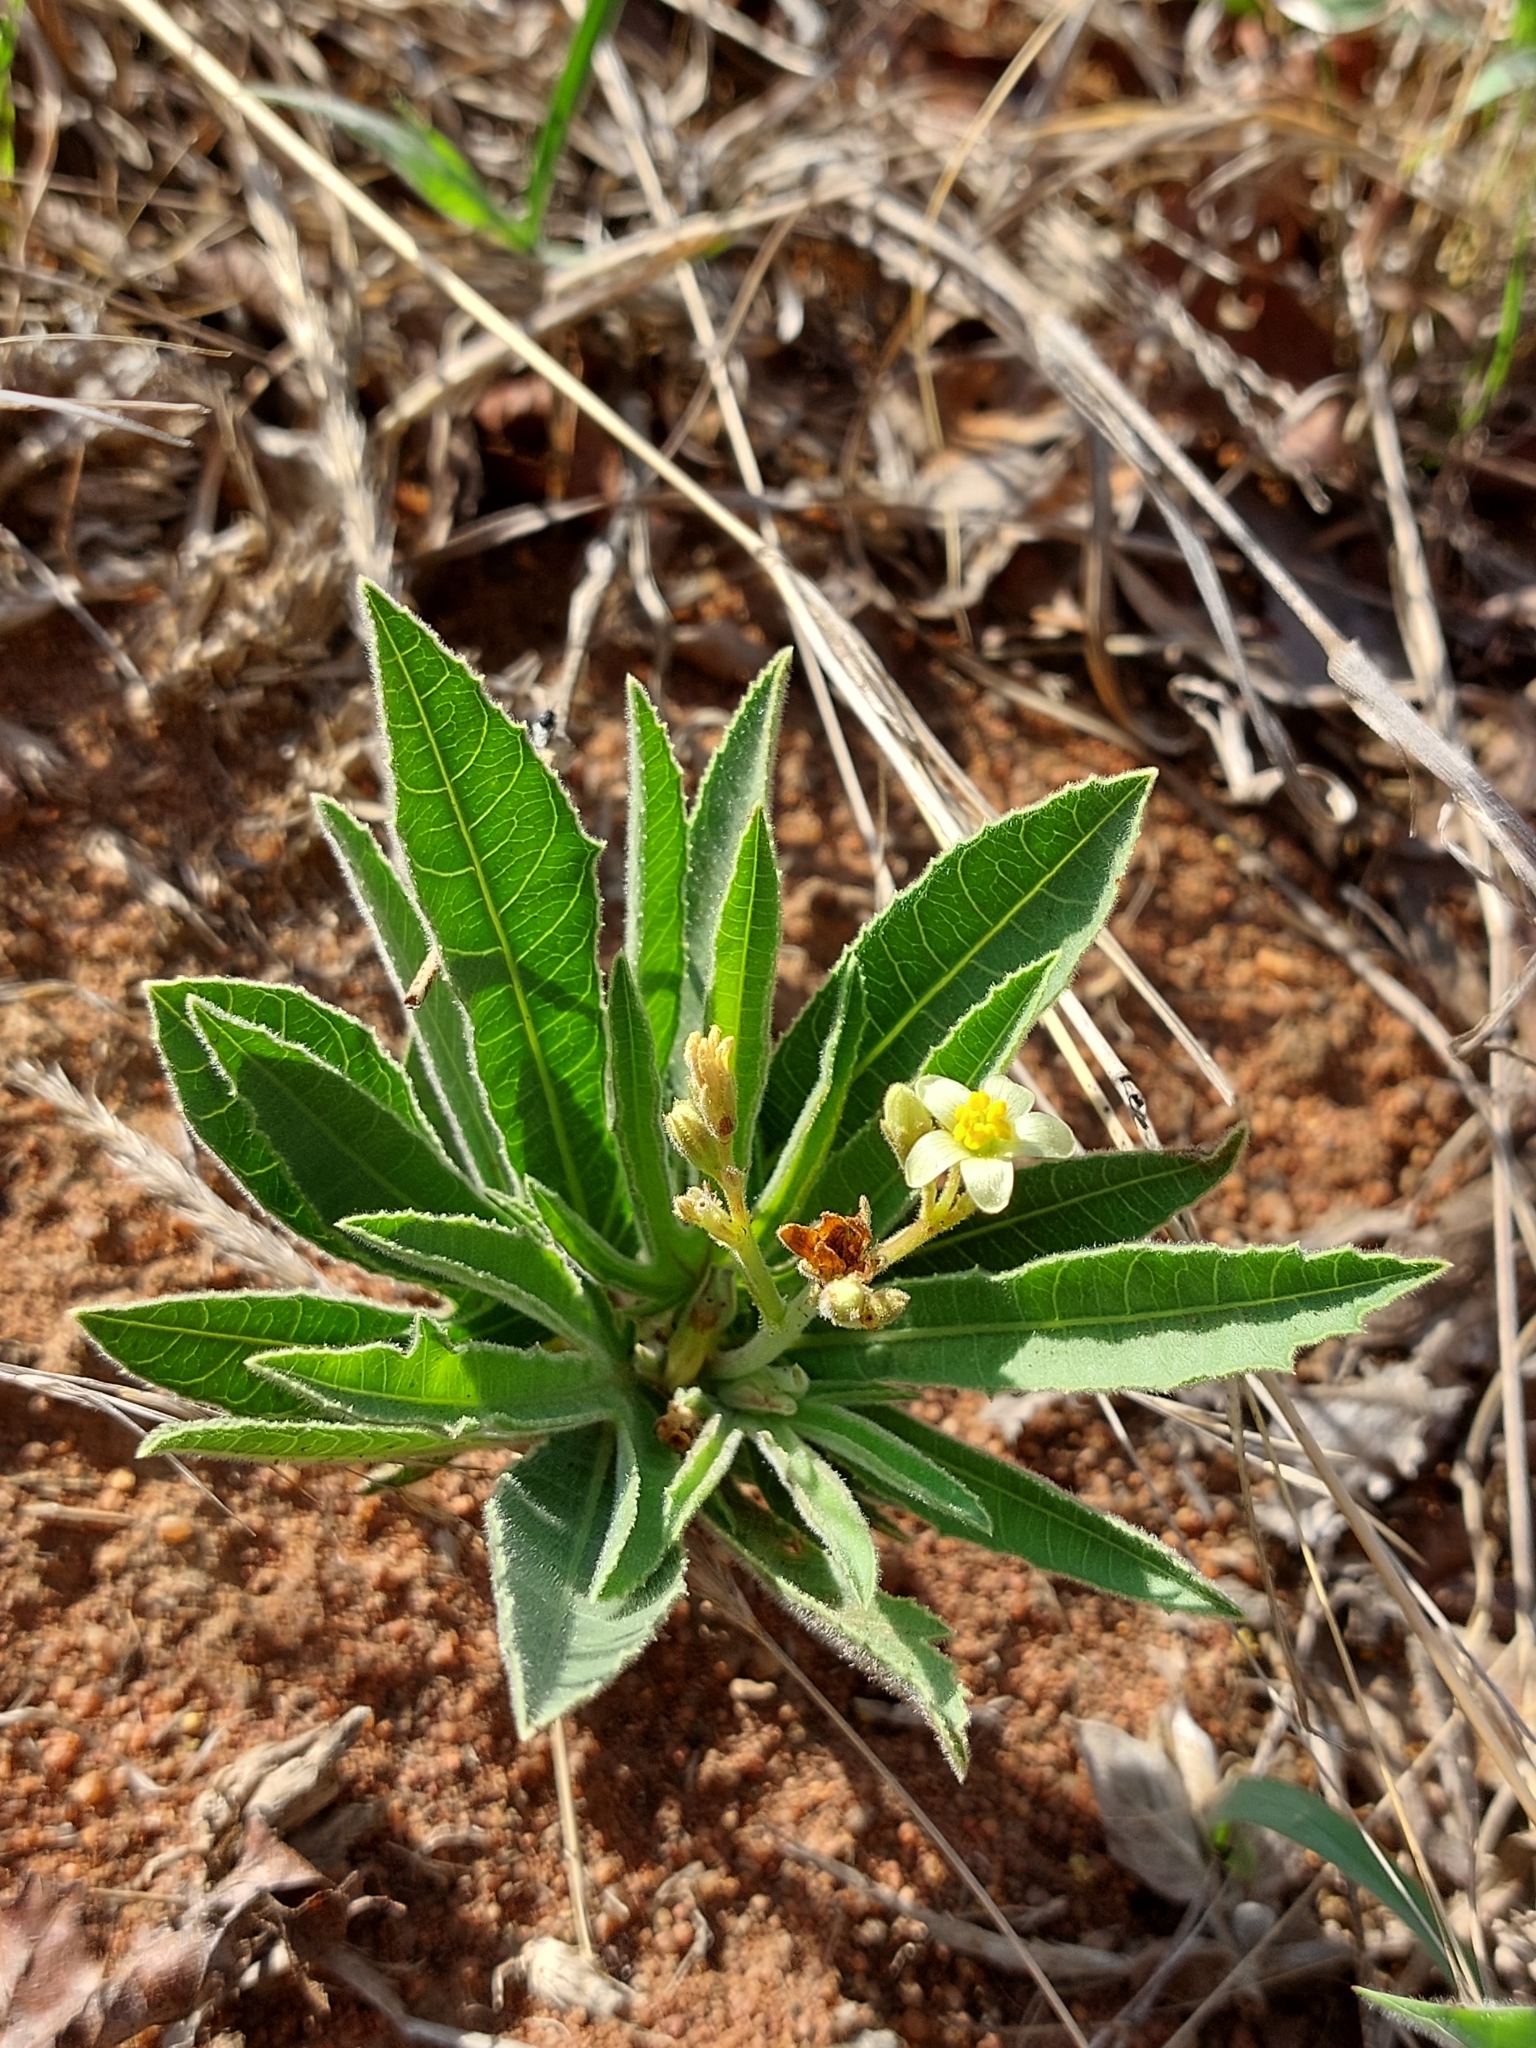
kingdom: Plantae
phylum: Tracheophyta
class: Magnoliopsida
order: Malpighiales
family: Euphorbiaceae
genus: Jatropha
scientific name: Jatropha zeyheri
